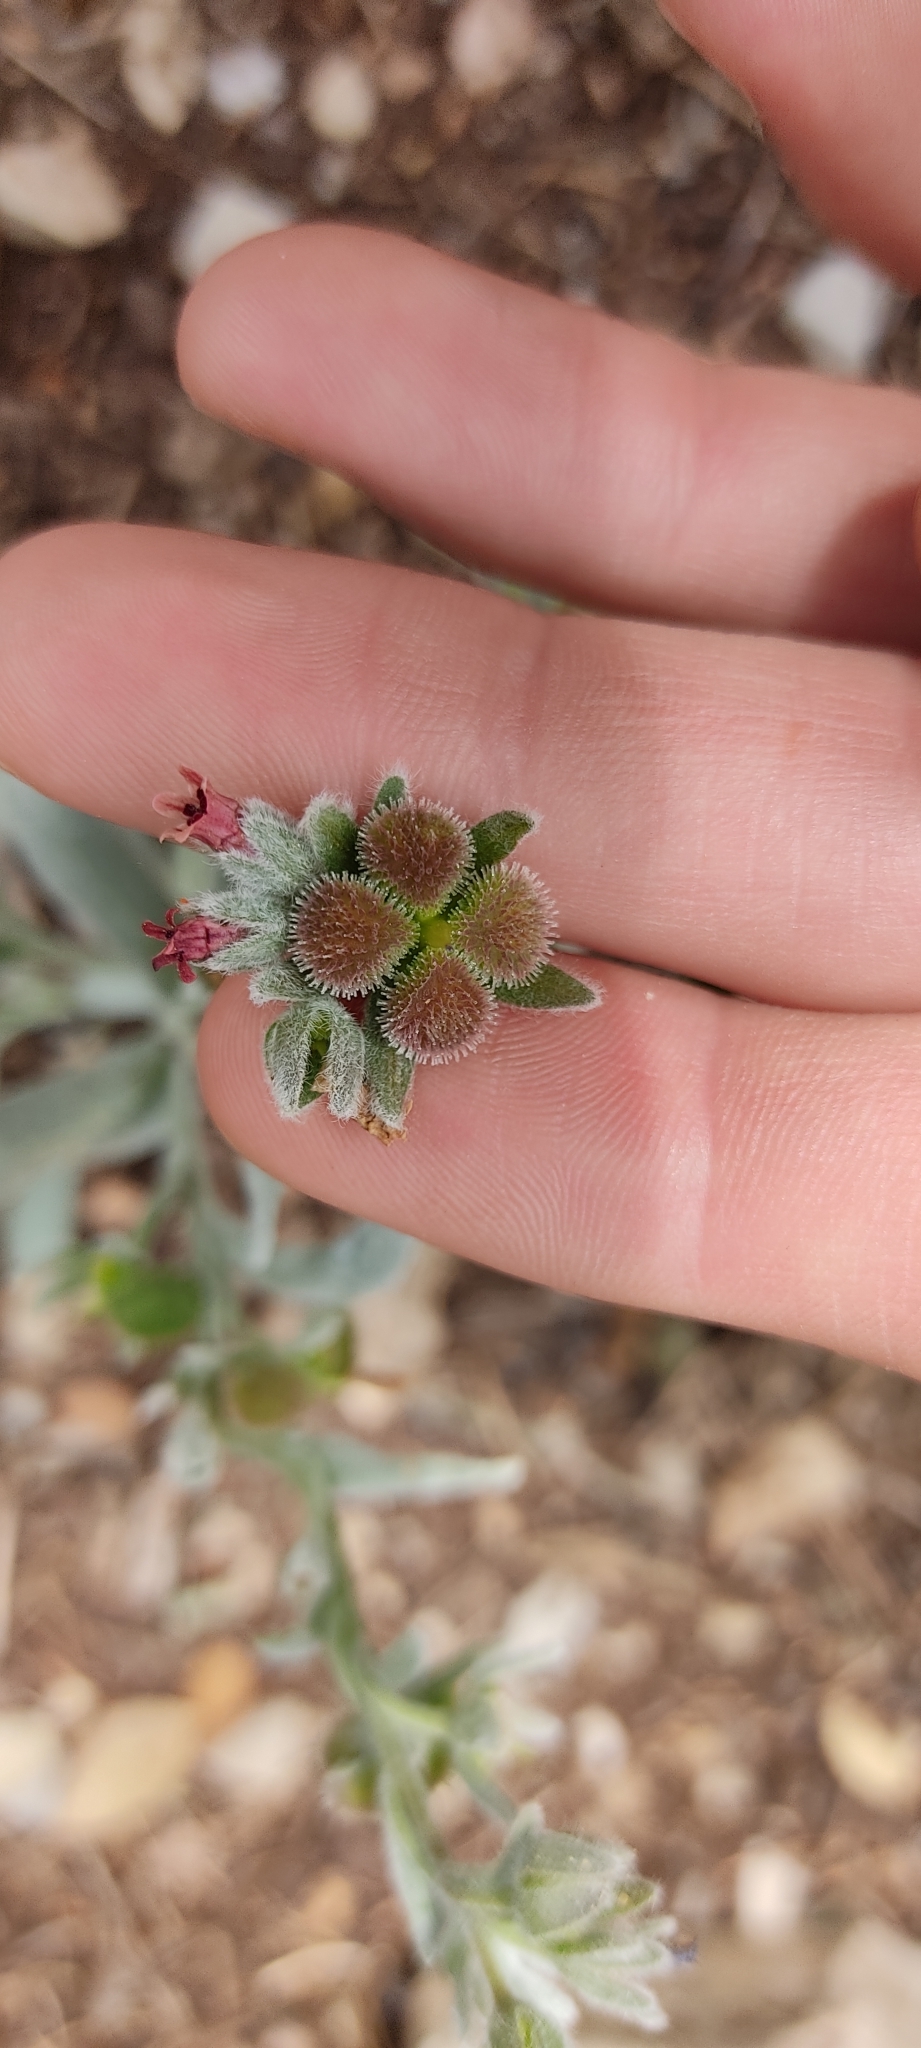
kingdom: Plantae
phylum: Tracheophyta
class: Magnoliopsida
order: Boraginales
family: Boraginaceae
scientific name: Boraginaceae
